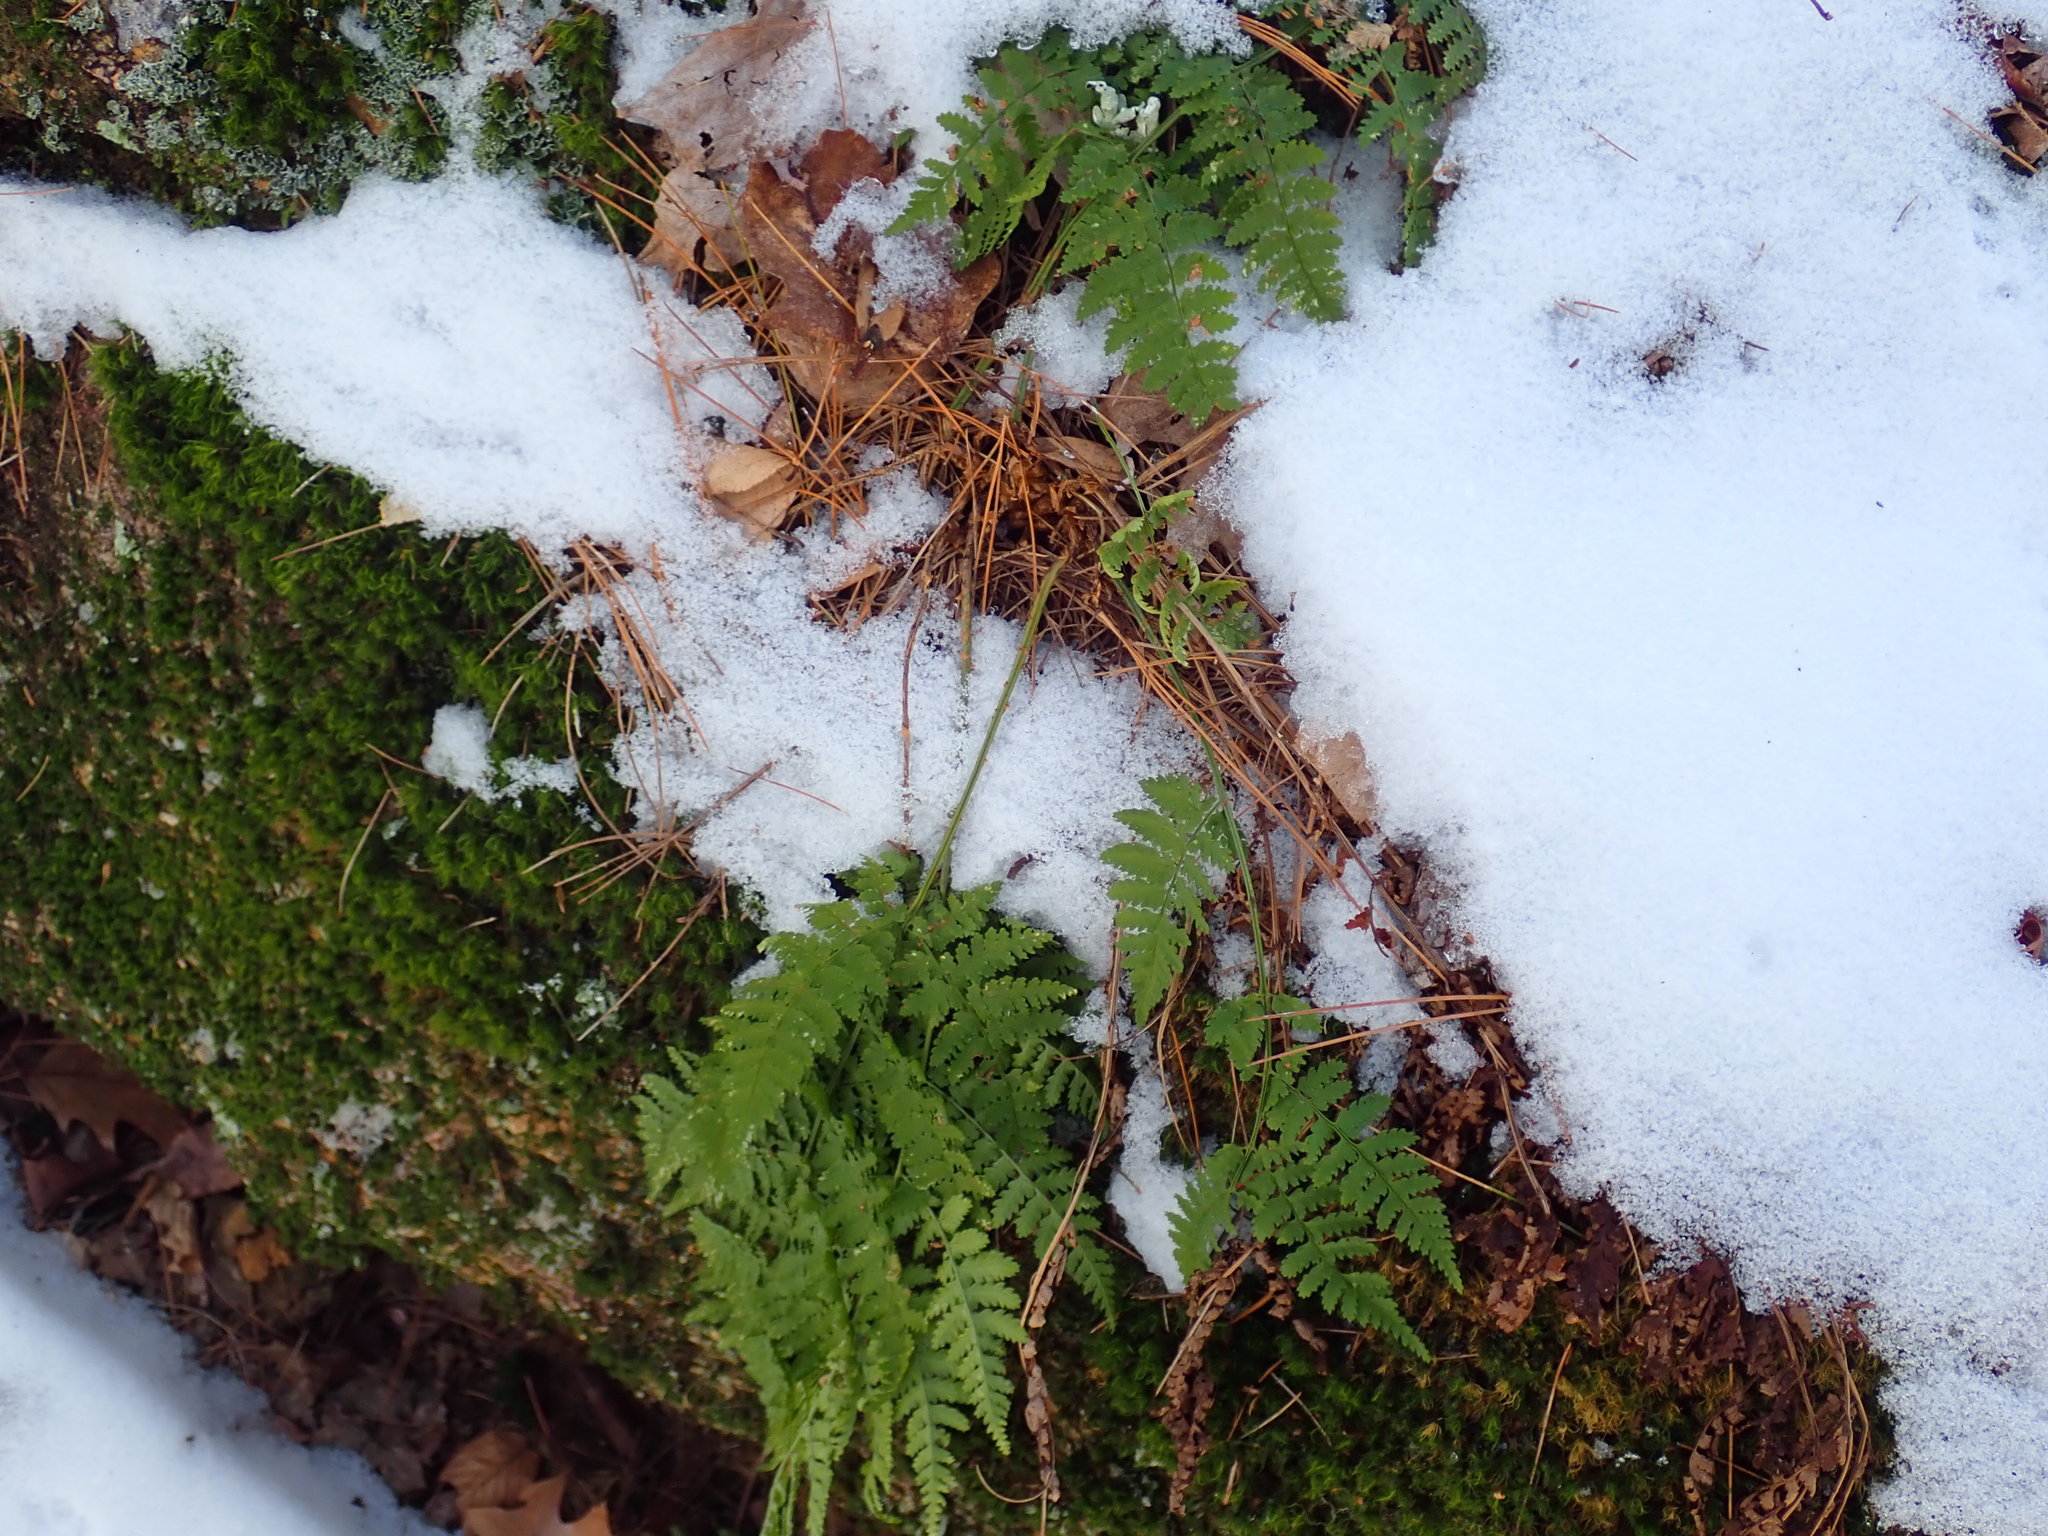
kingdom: Plantae
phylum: Tracheophyta
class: Polypodiopsida
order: Polypodiales
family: Dryopteridaceae
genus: Dryopteris
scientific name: Dryopteris intermedia
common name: Evergreen wood fern
